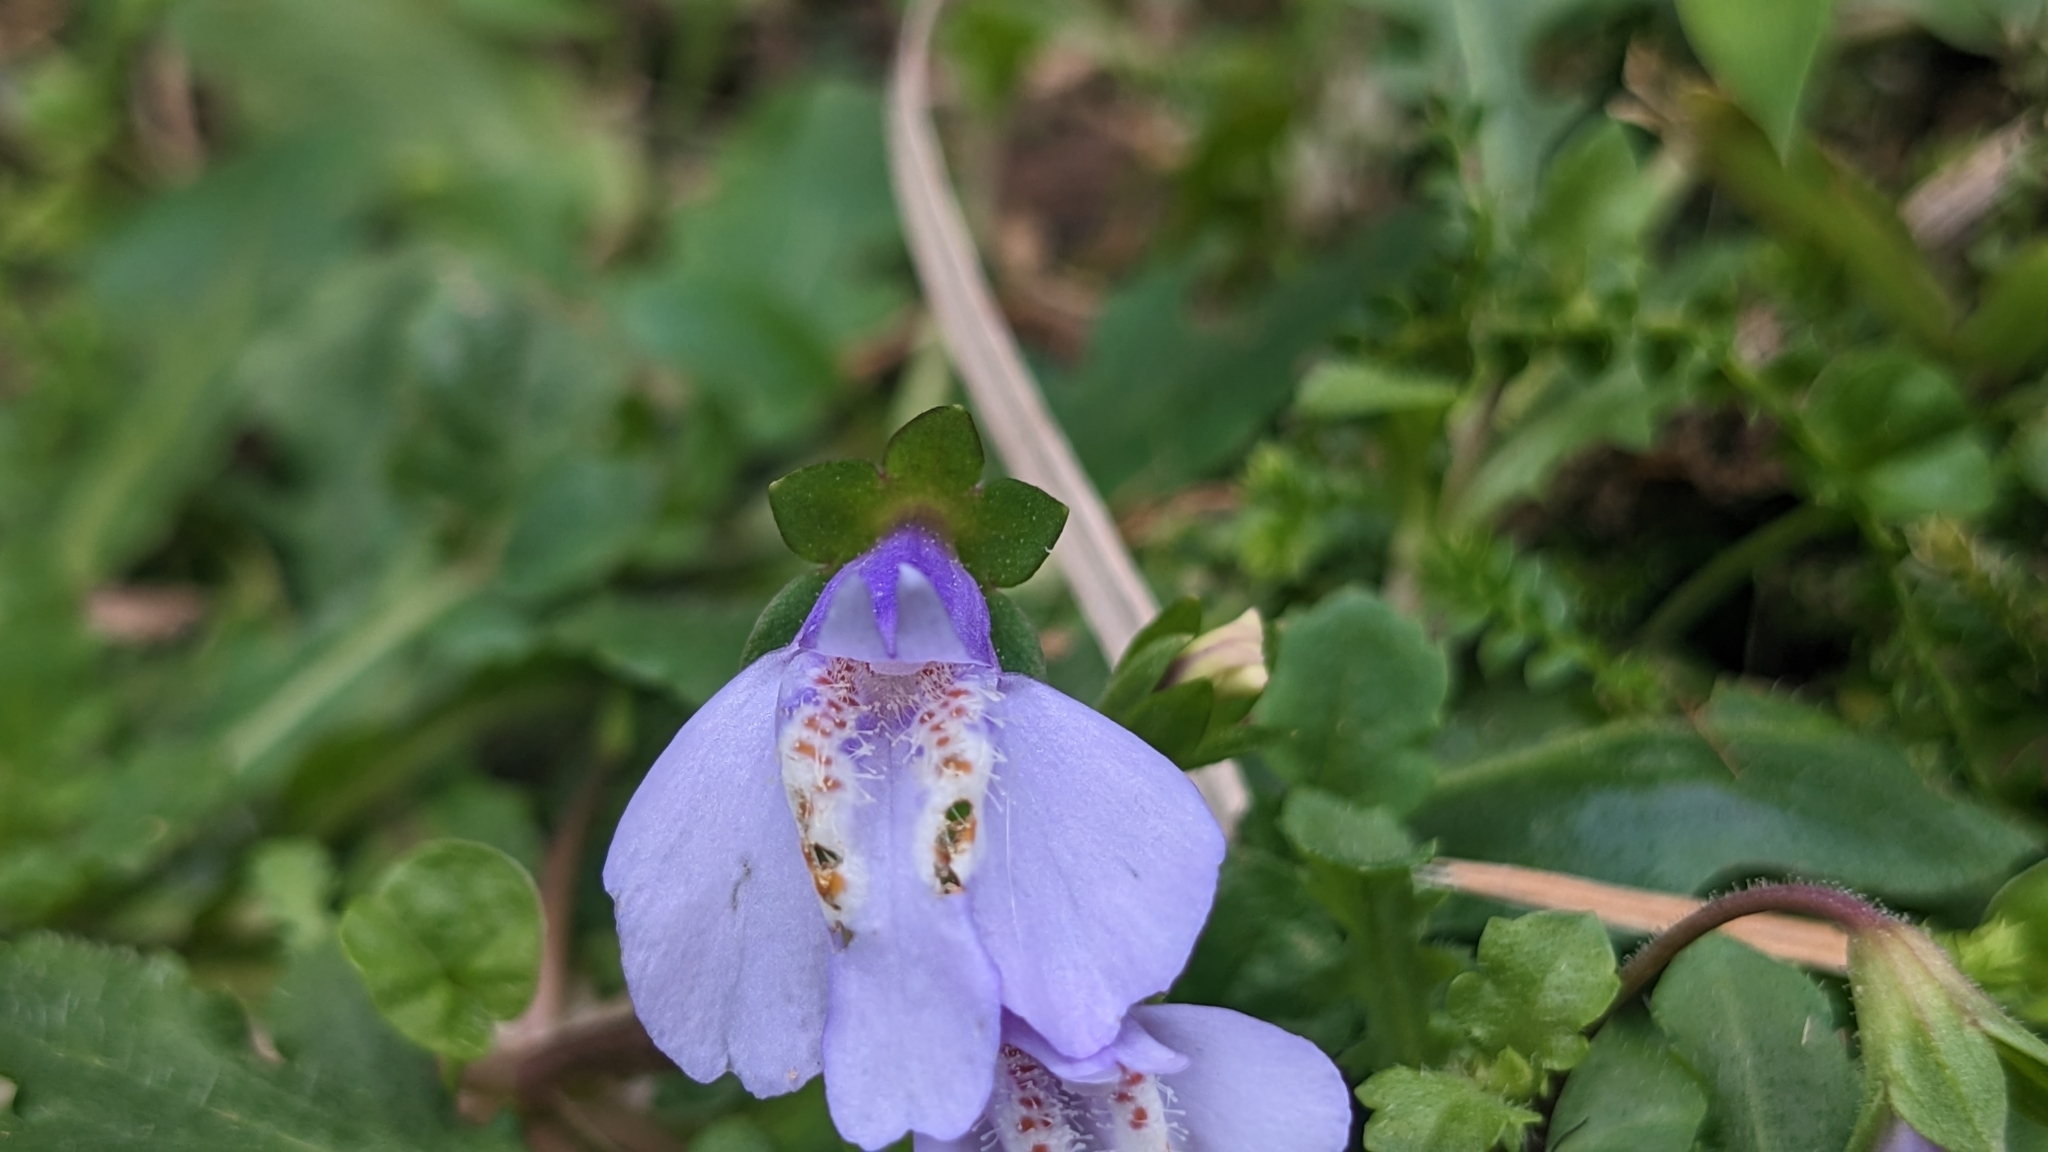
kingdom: Plantae
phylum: Tracheophyta
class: Magnoliopsida
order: Lamiales
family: Mazaceae
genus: Mazus
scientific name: Mazus fauriei
